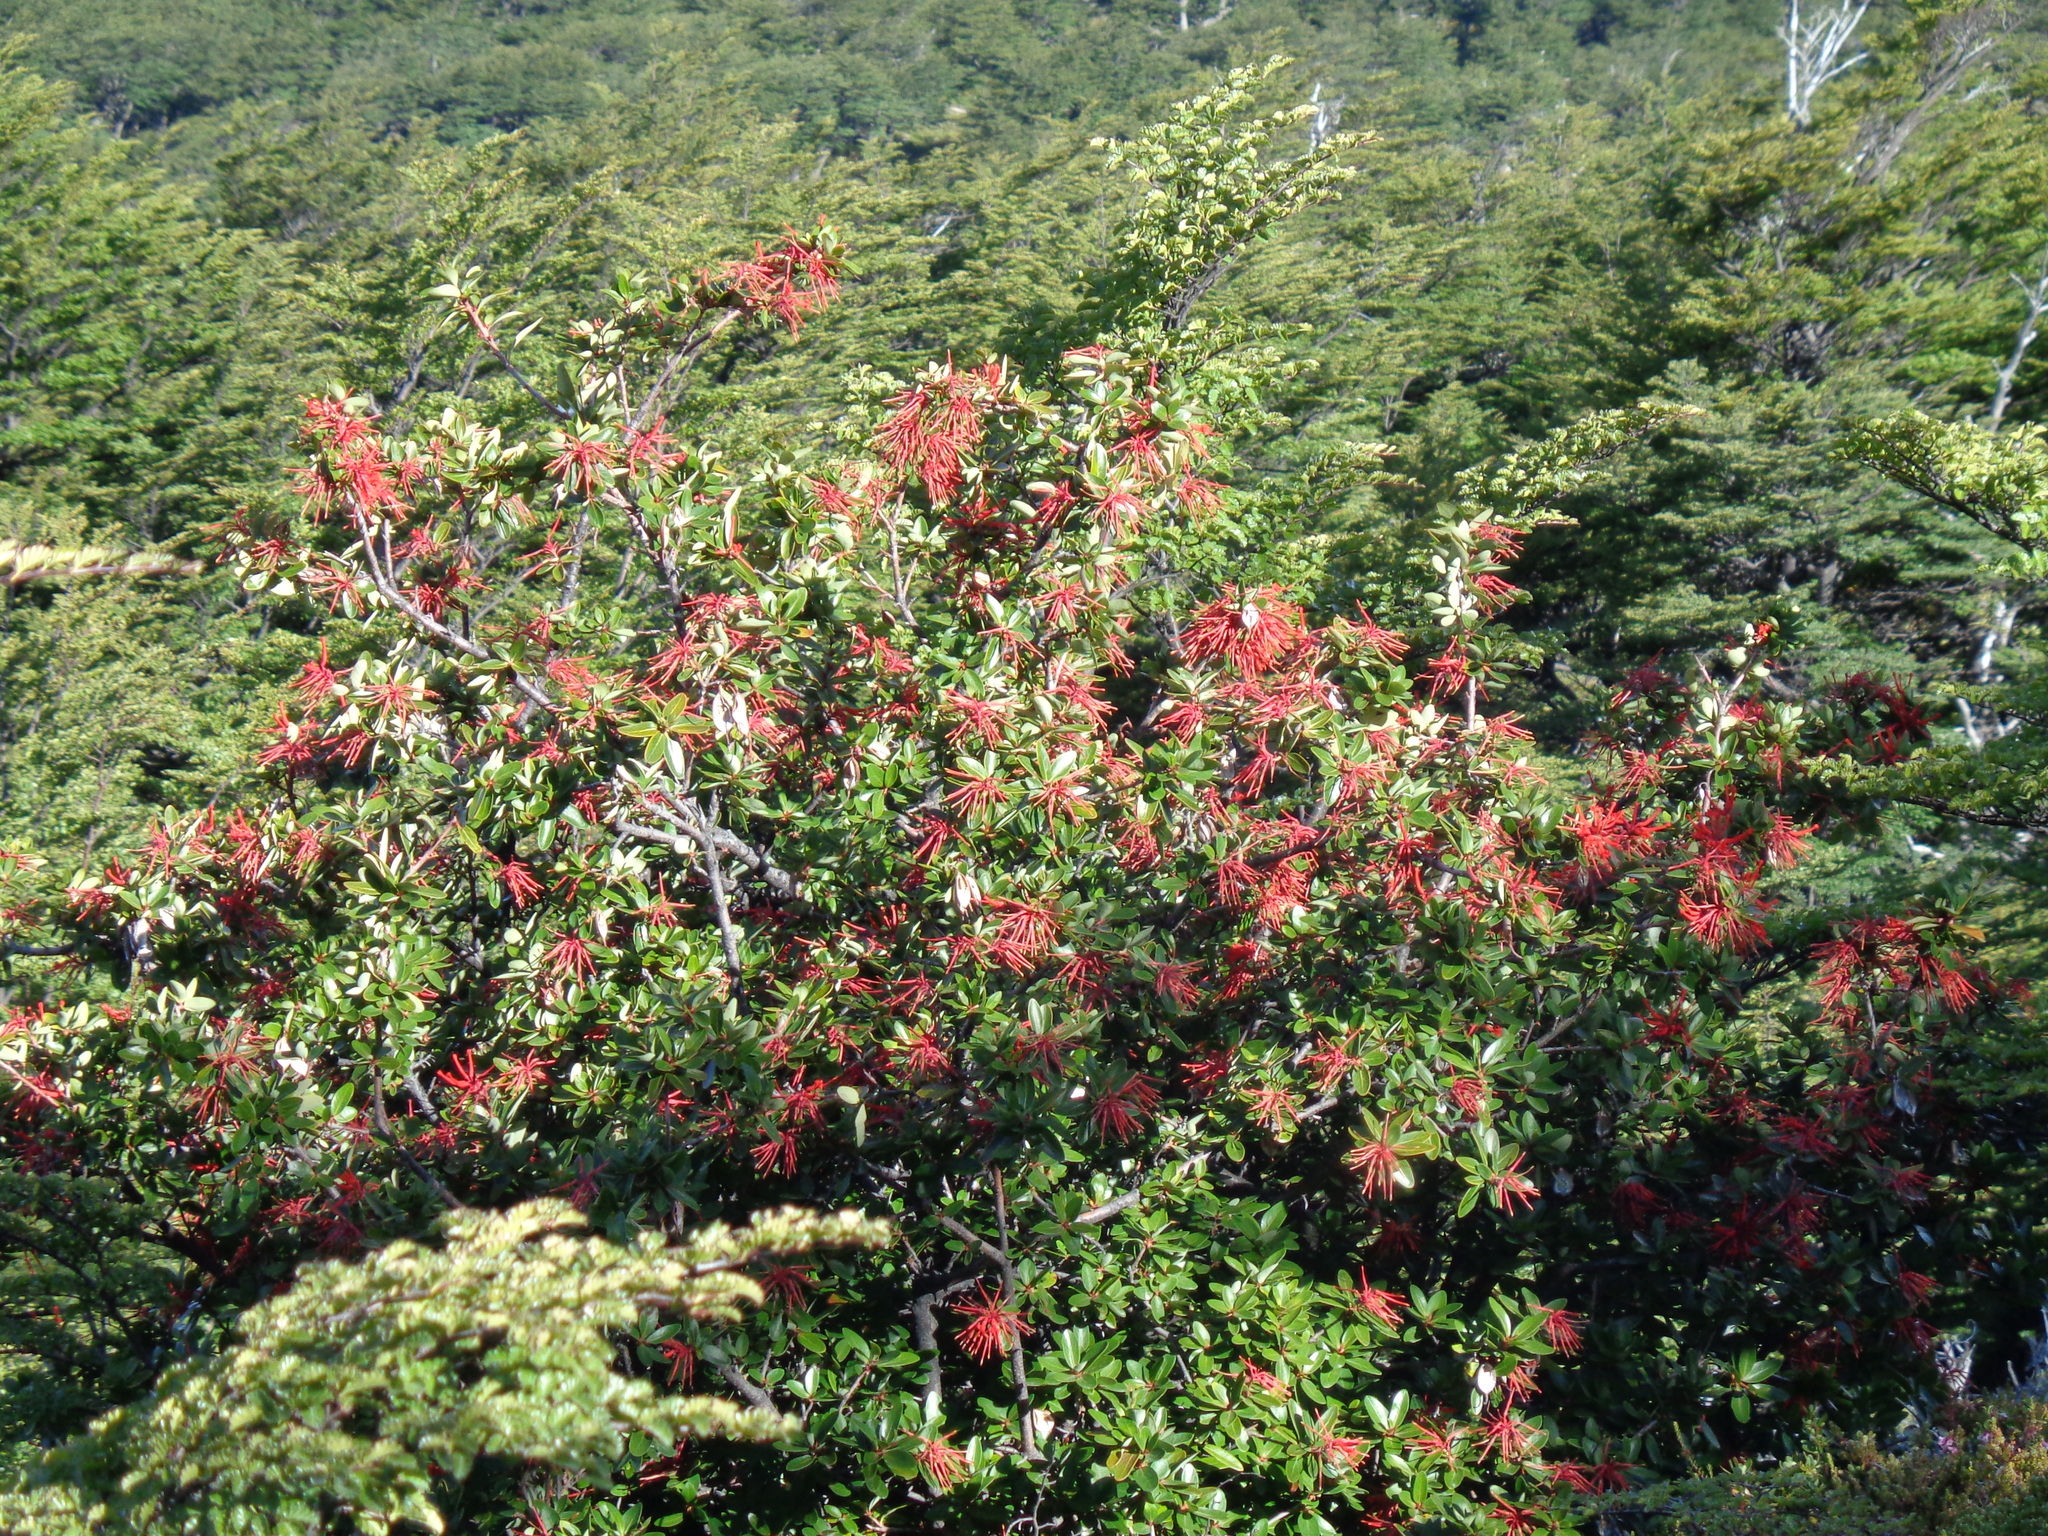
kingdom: Plantae
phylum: Tracheophyta
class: Magnoliopsida
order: Proteales
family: Proteaceae
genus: Embothrium
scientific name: Embothrium coccineum
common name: Chilean firebush
